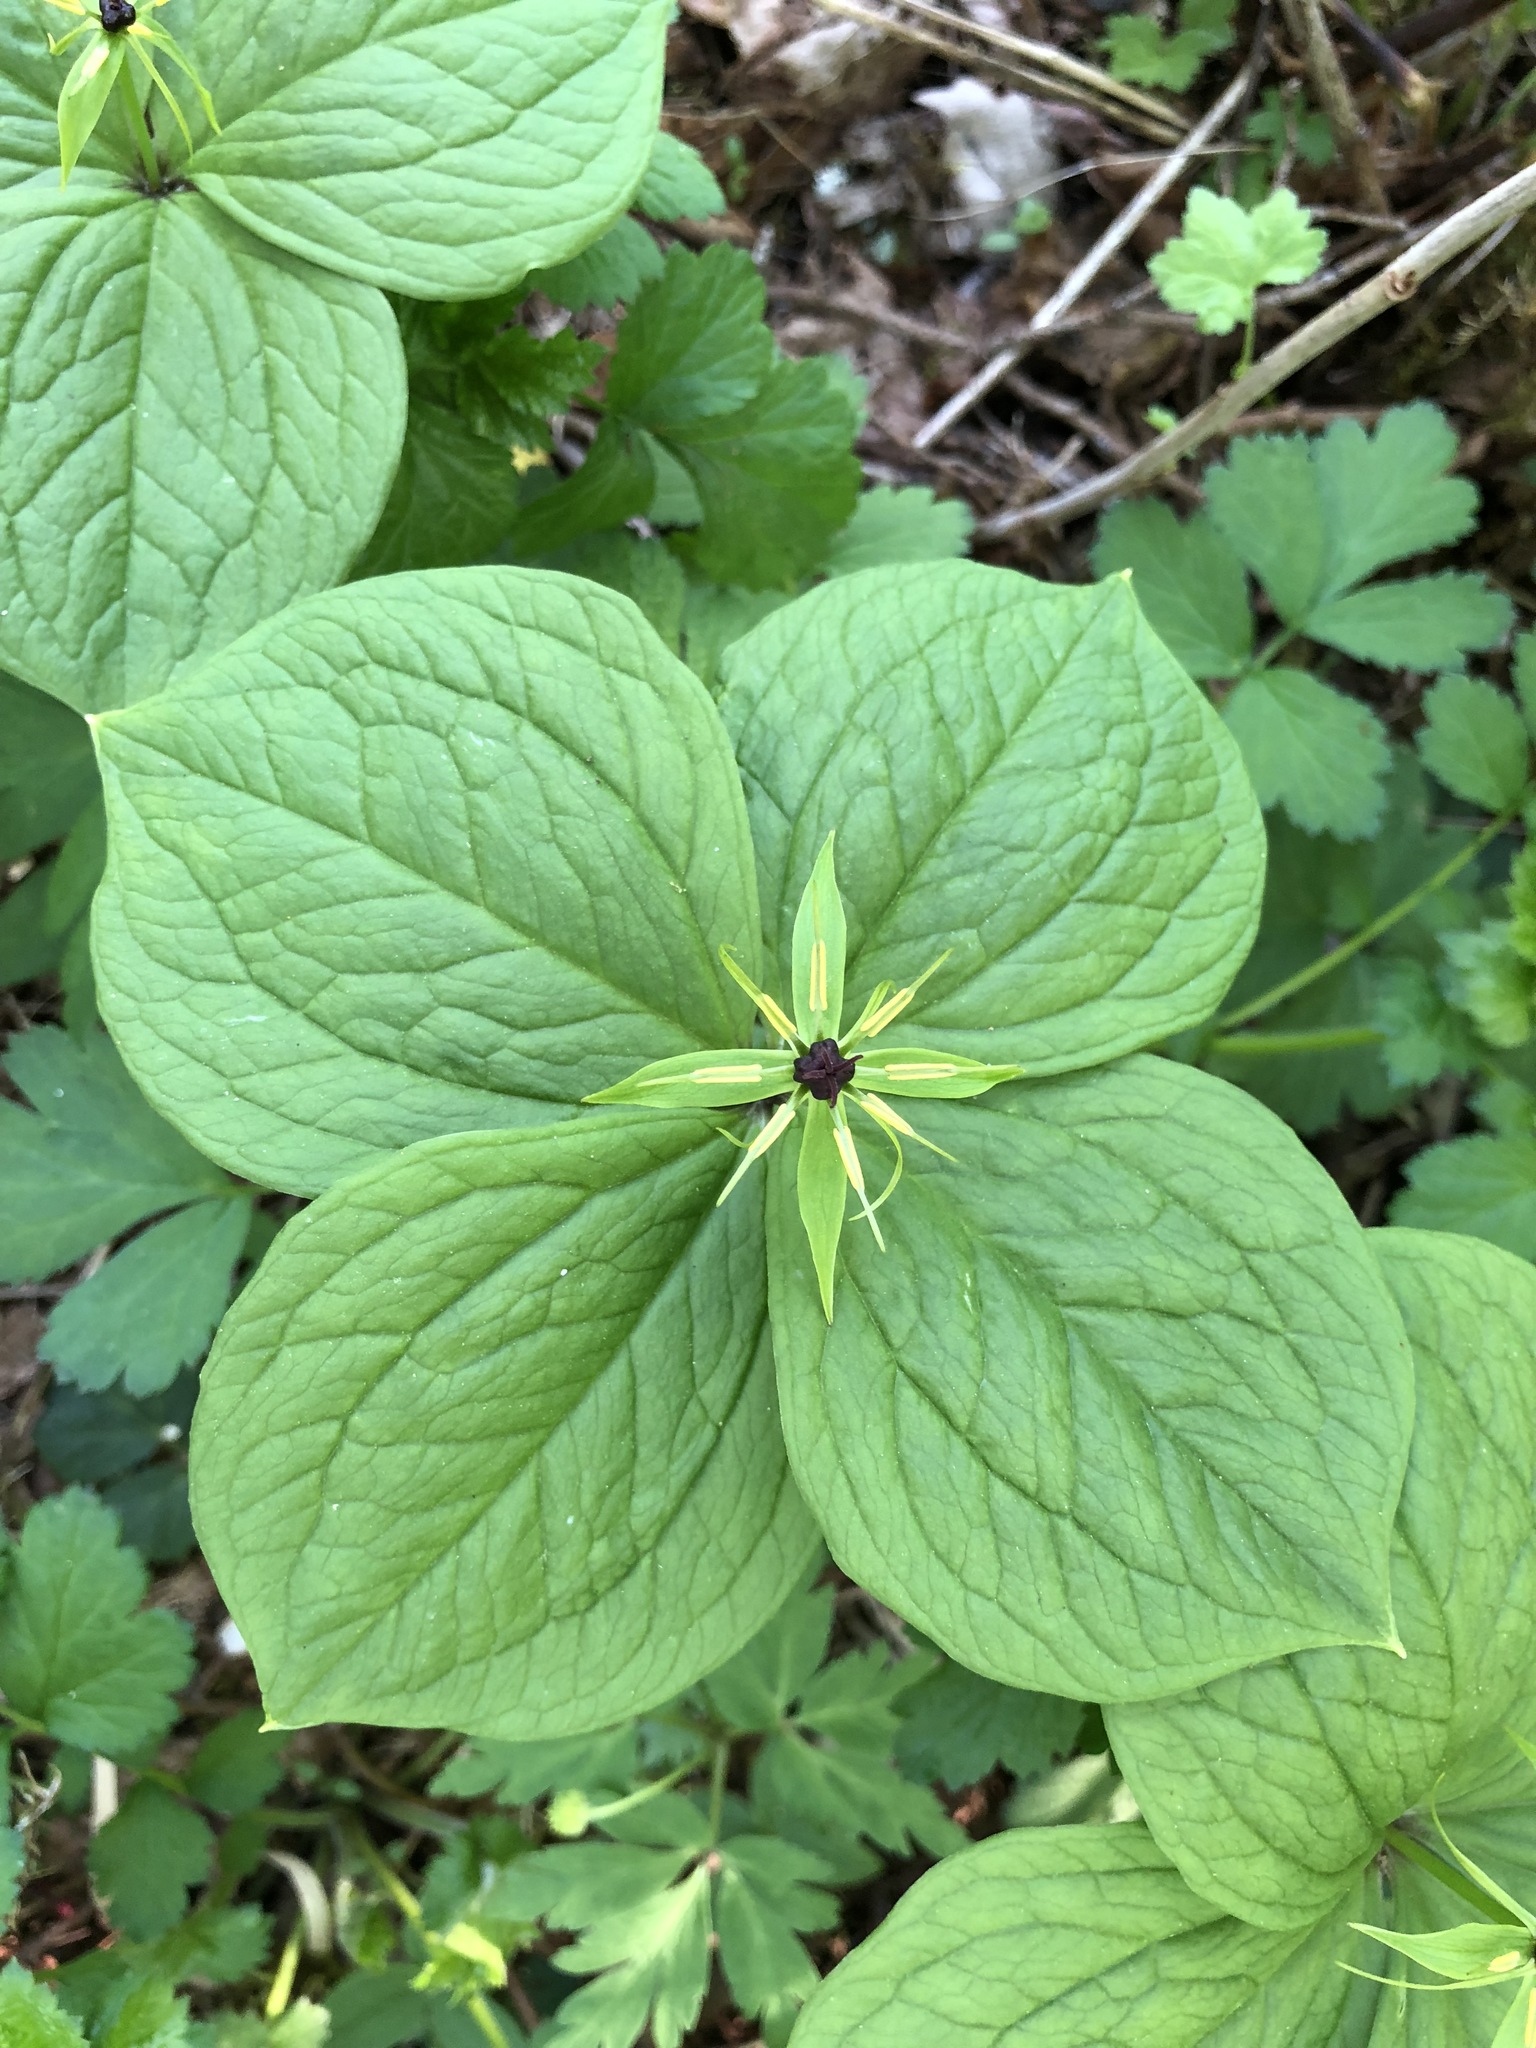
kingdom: Plantae
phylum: Tracheophyta
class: Liliopsida
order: Liliales
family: Melanthiaceae
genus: Paris
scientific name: Paris quadrifolia
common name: Herb-paris
